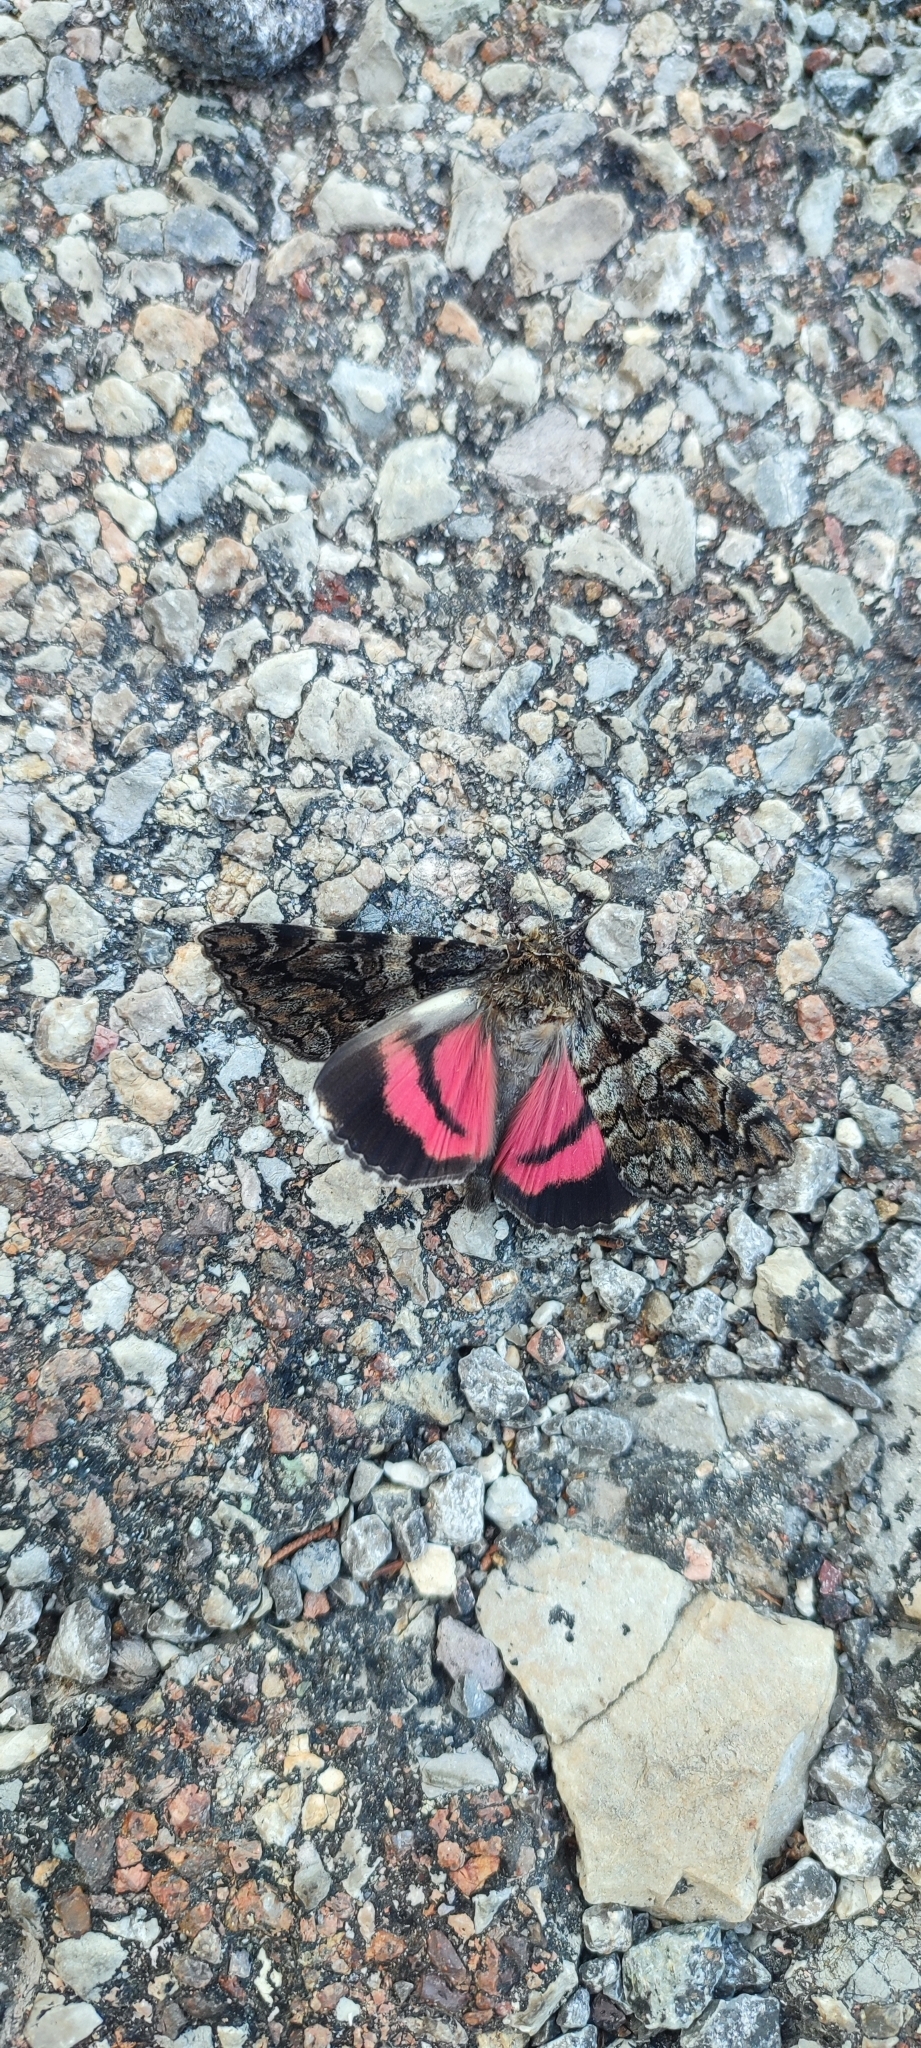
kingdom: Animalia
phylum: Arthropoda
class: Insecta
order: Lepidoptera
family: Erebidae
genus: Catocala
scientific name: Catocala coniuncta
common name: Minsmere crimson underwing
